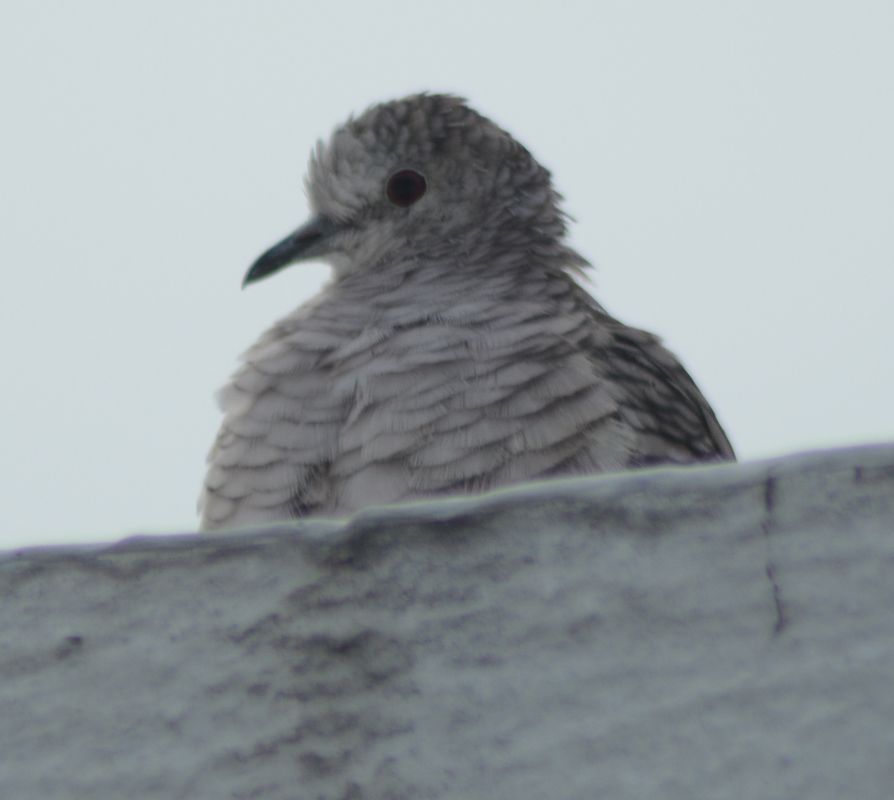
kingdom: Animalia
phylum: Chordata
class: Aves
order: Columbiformes
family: Columbidae
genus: Columbina
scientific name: Columbina inca
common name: Inca dove
